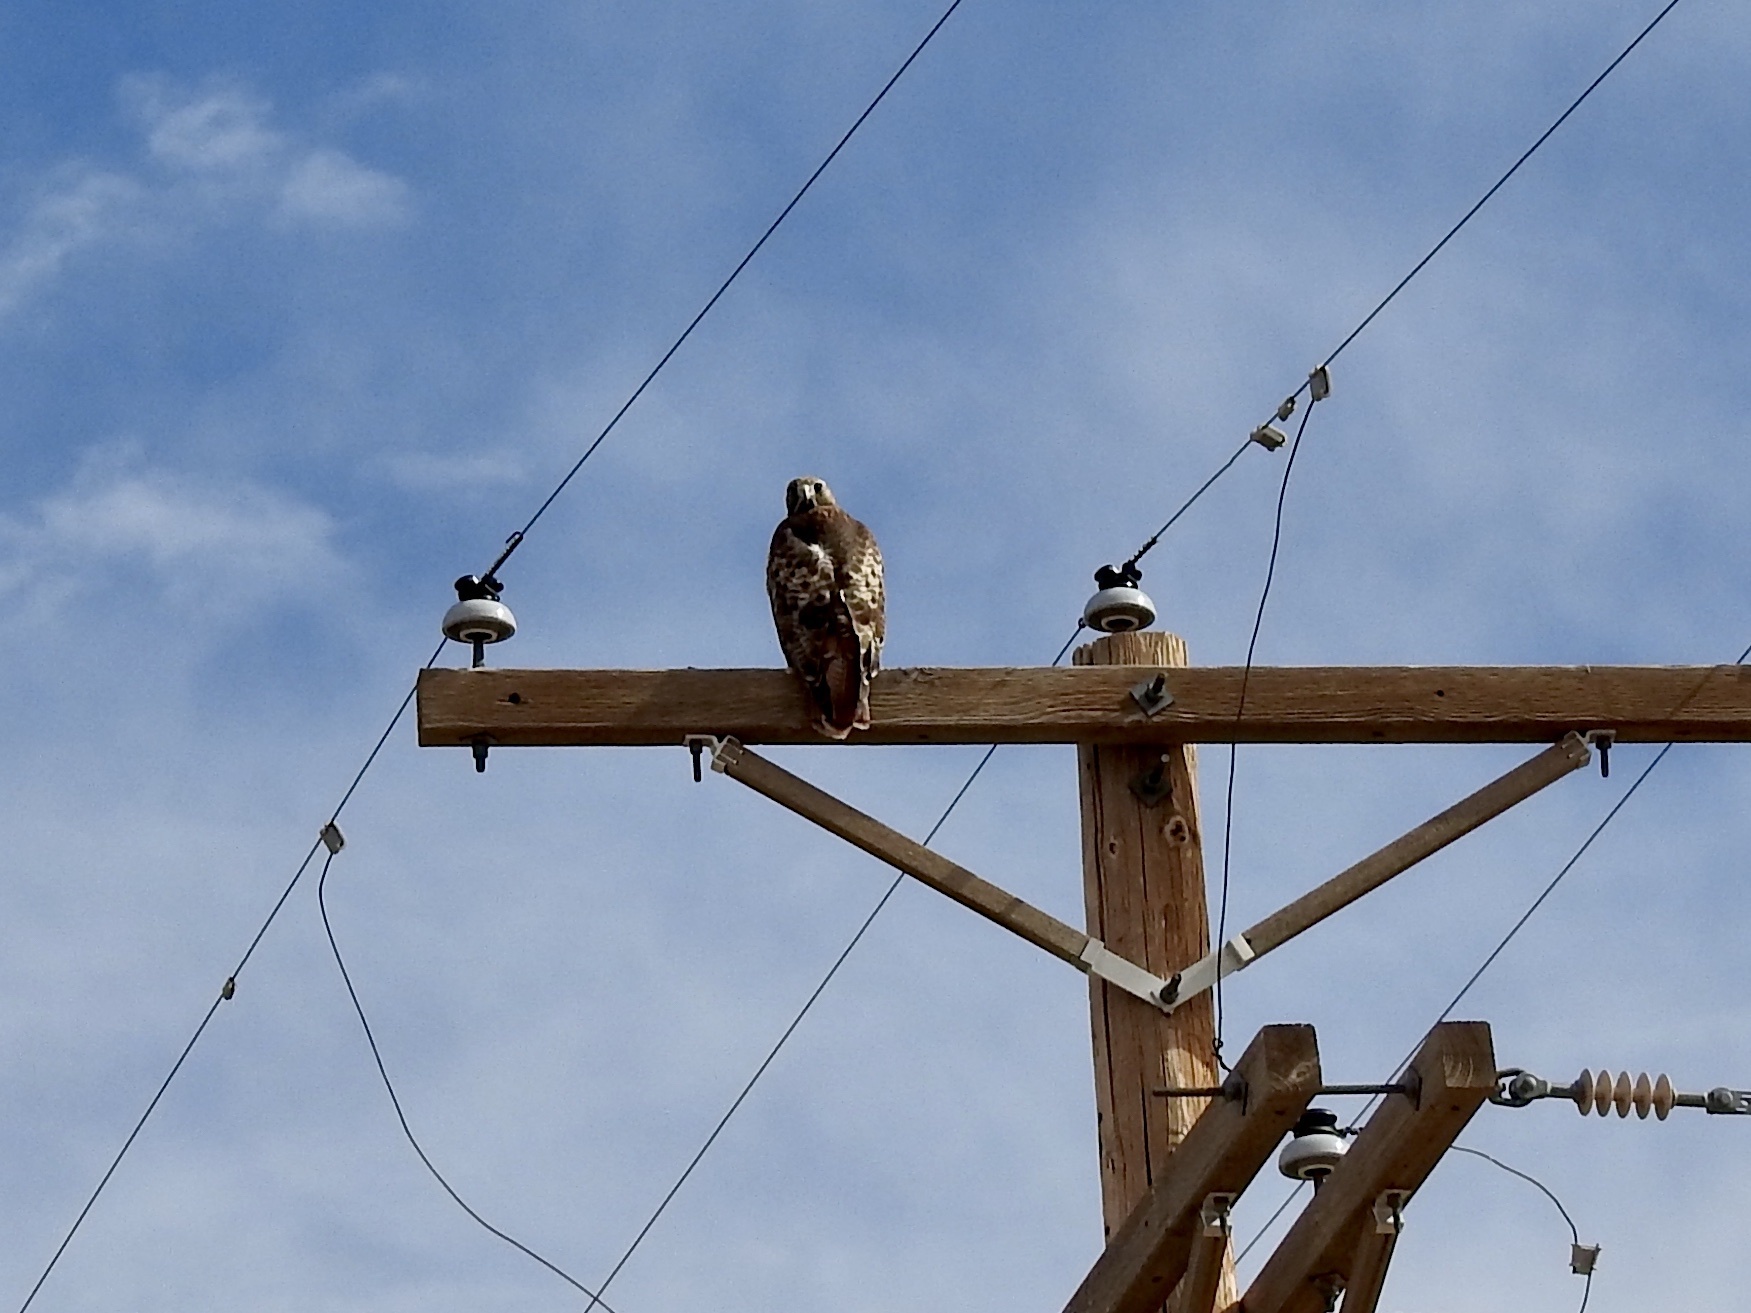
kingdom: Animalia
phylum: Chordata
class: Aves
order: Accipitriformes
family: Accipitridae
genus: Buteo
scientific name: Buteo jamaicensis
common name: Red-tailed hawk
